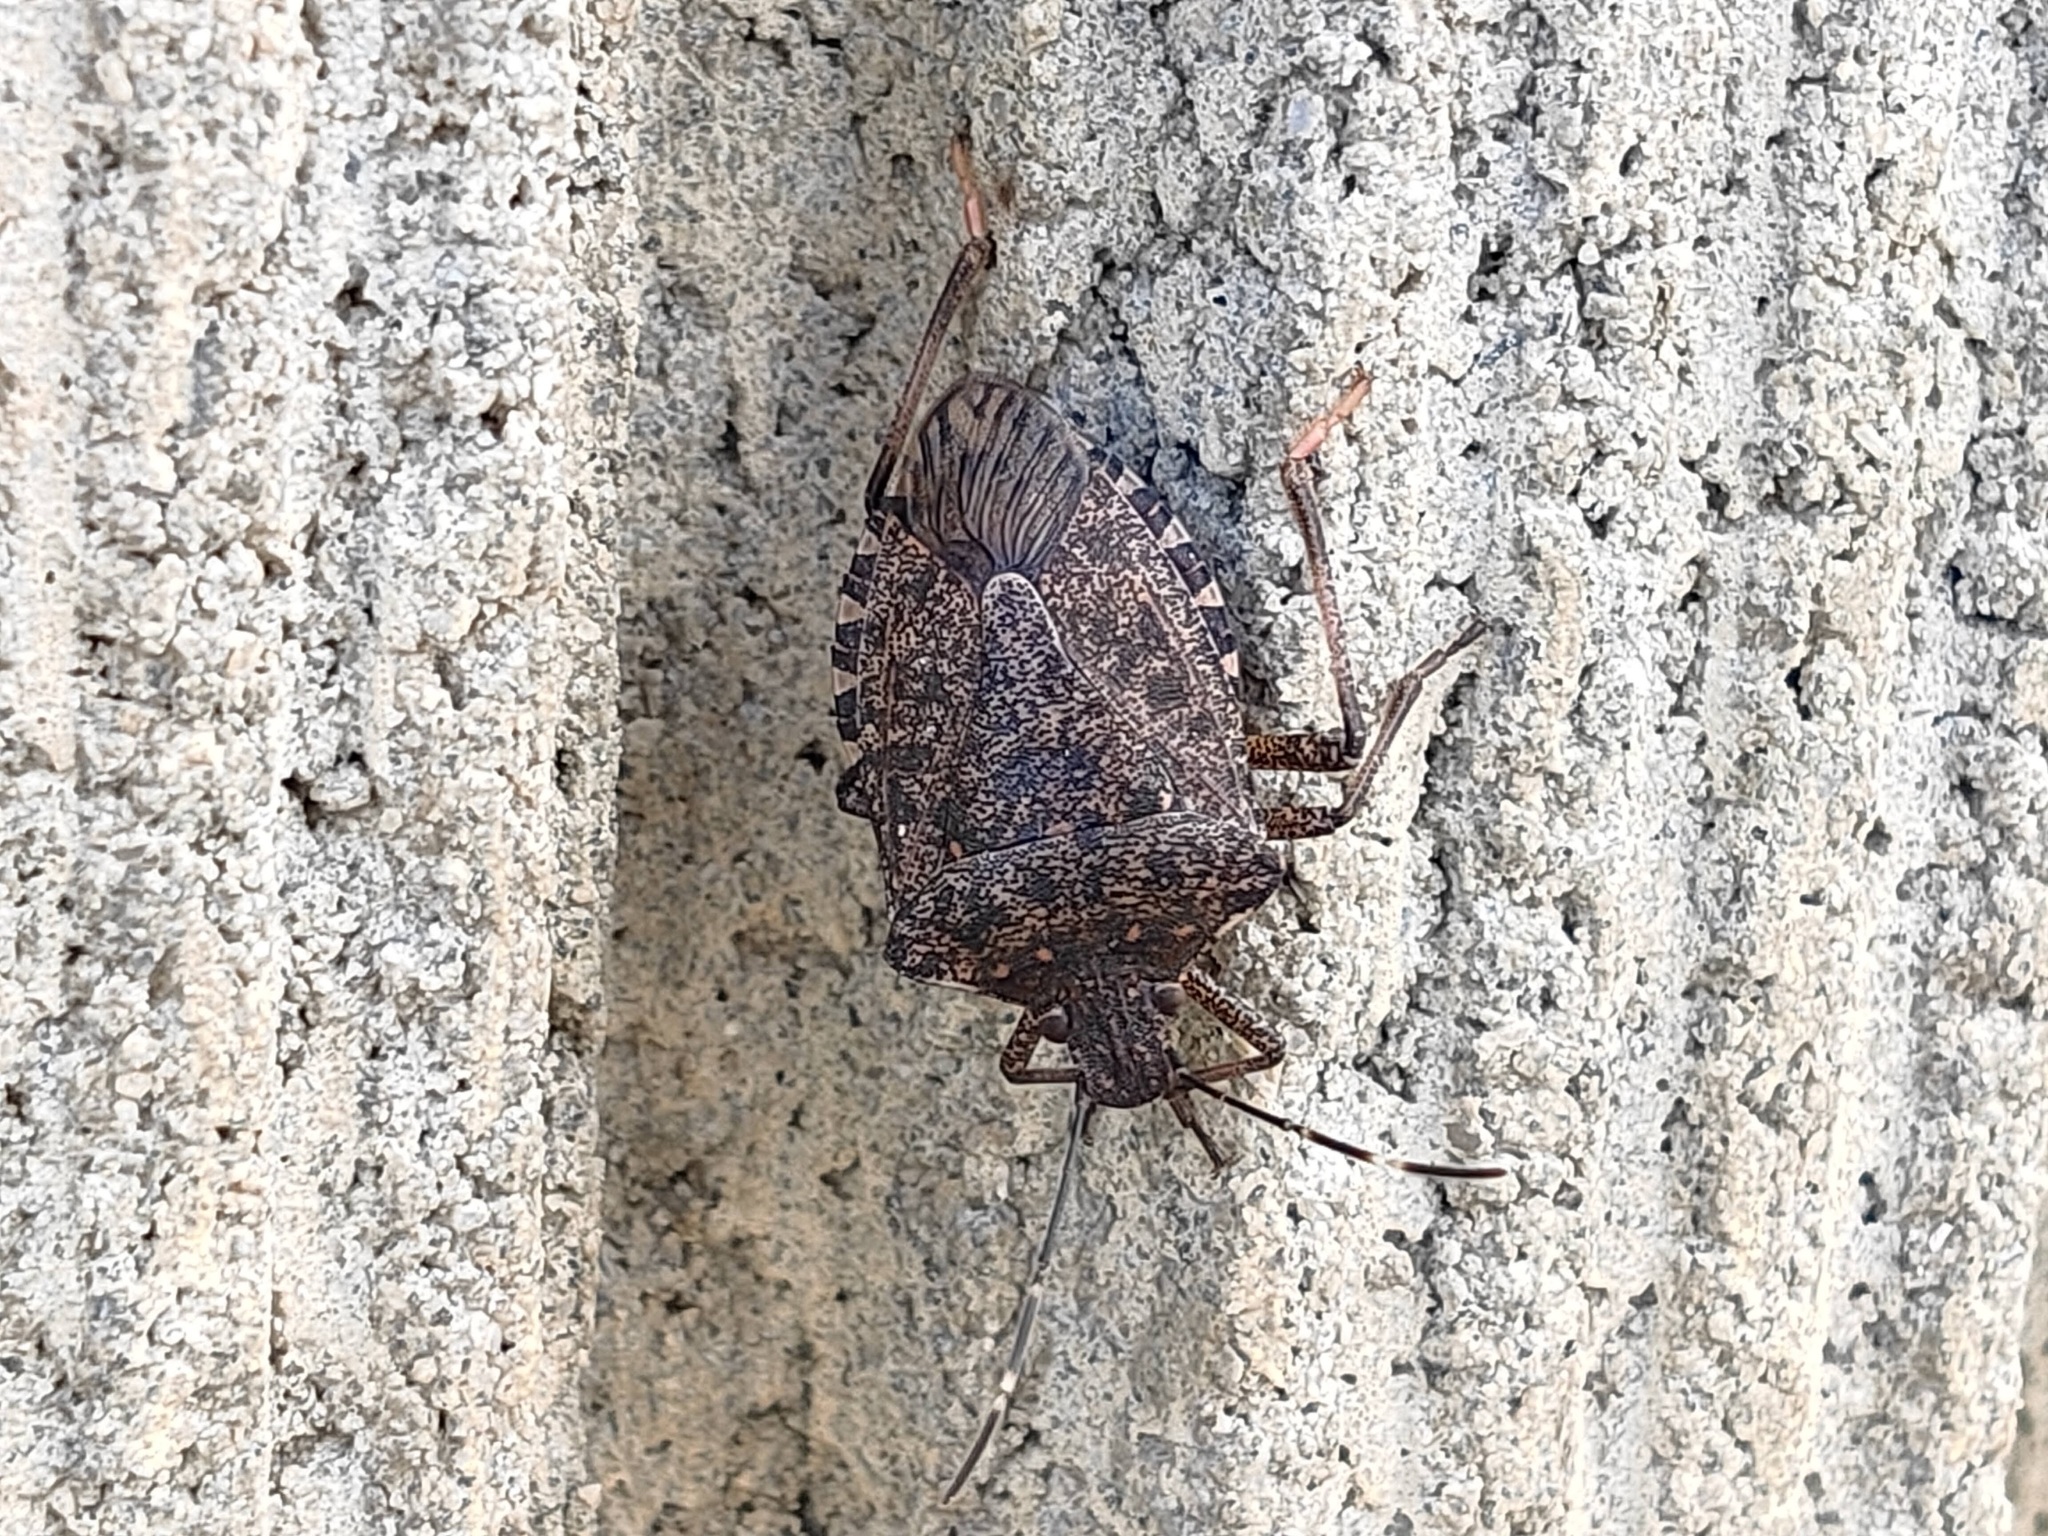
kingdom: Animalia
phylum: Arthropoda
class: Insecta
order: Hemiptera
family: Pentatomidae
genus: Halyomorpha
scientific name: Halyomorpha halys
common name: Brown marmorated stink bug
